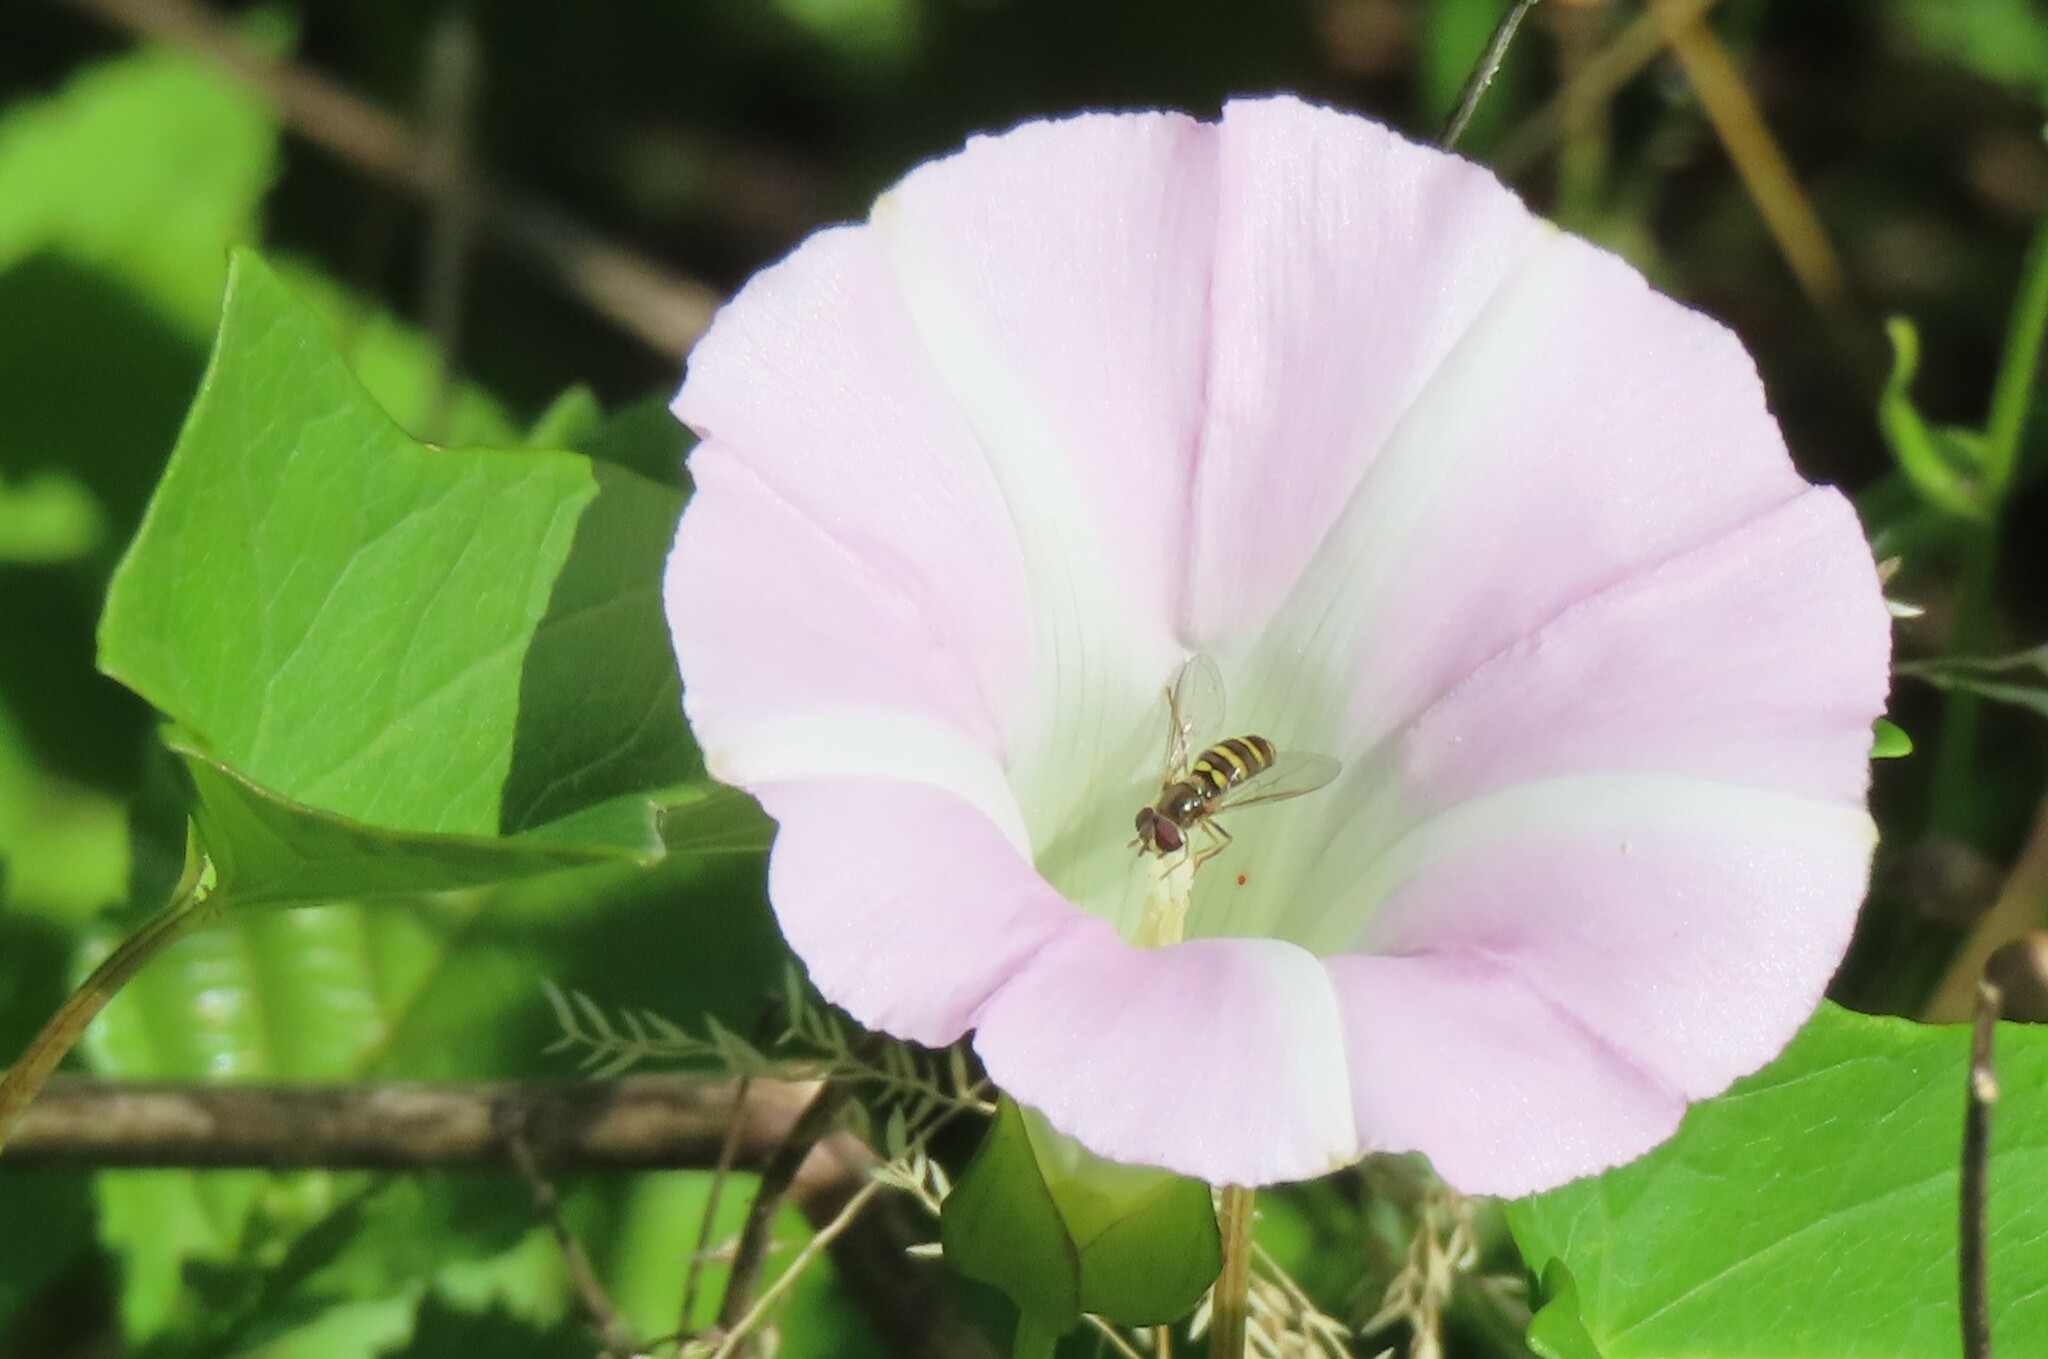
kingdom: Animalia
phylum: Arthropoda
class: Insecta
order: Diptera
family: Syrphidae
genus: Eupeodes
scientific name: Eupeodes
